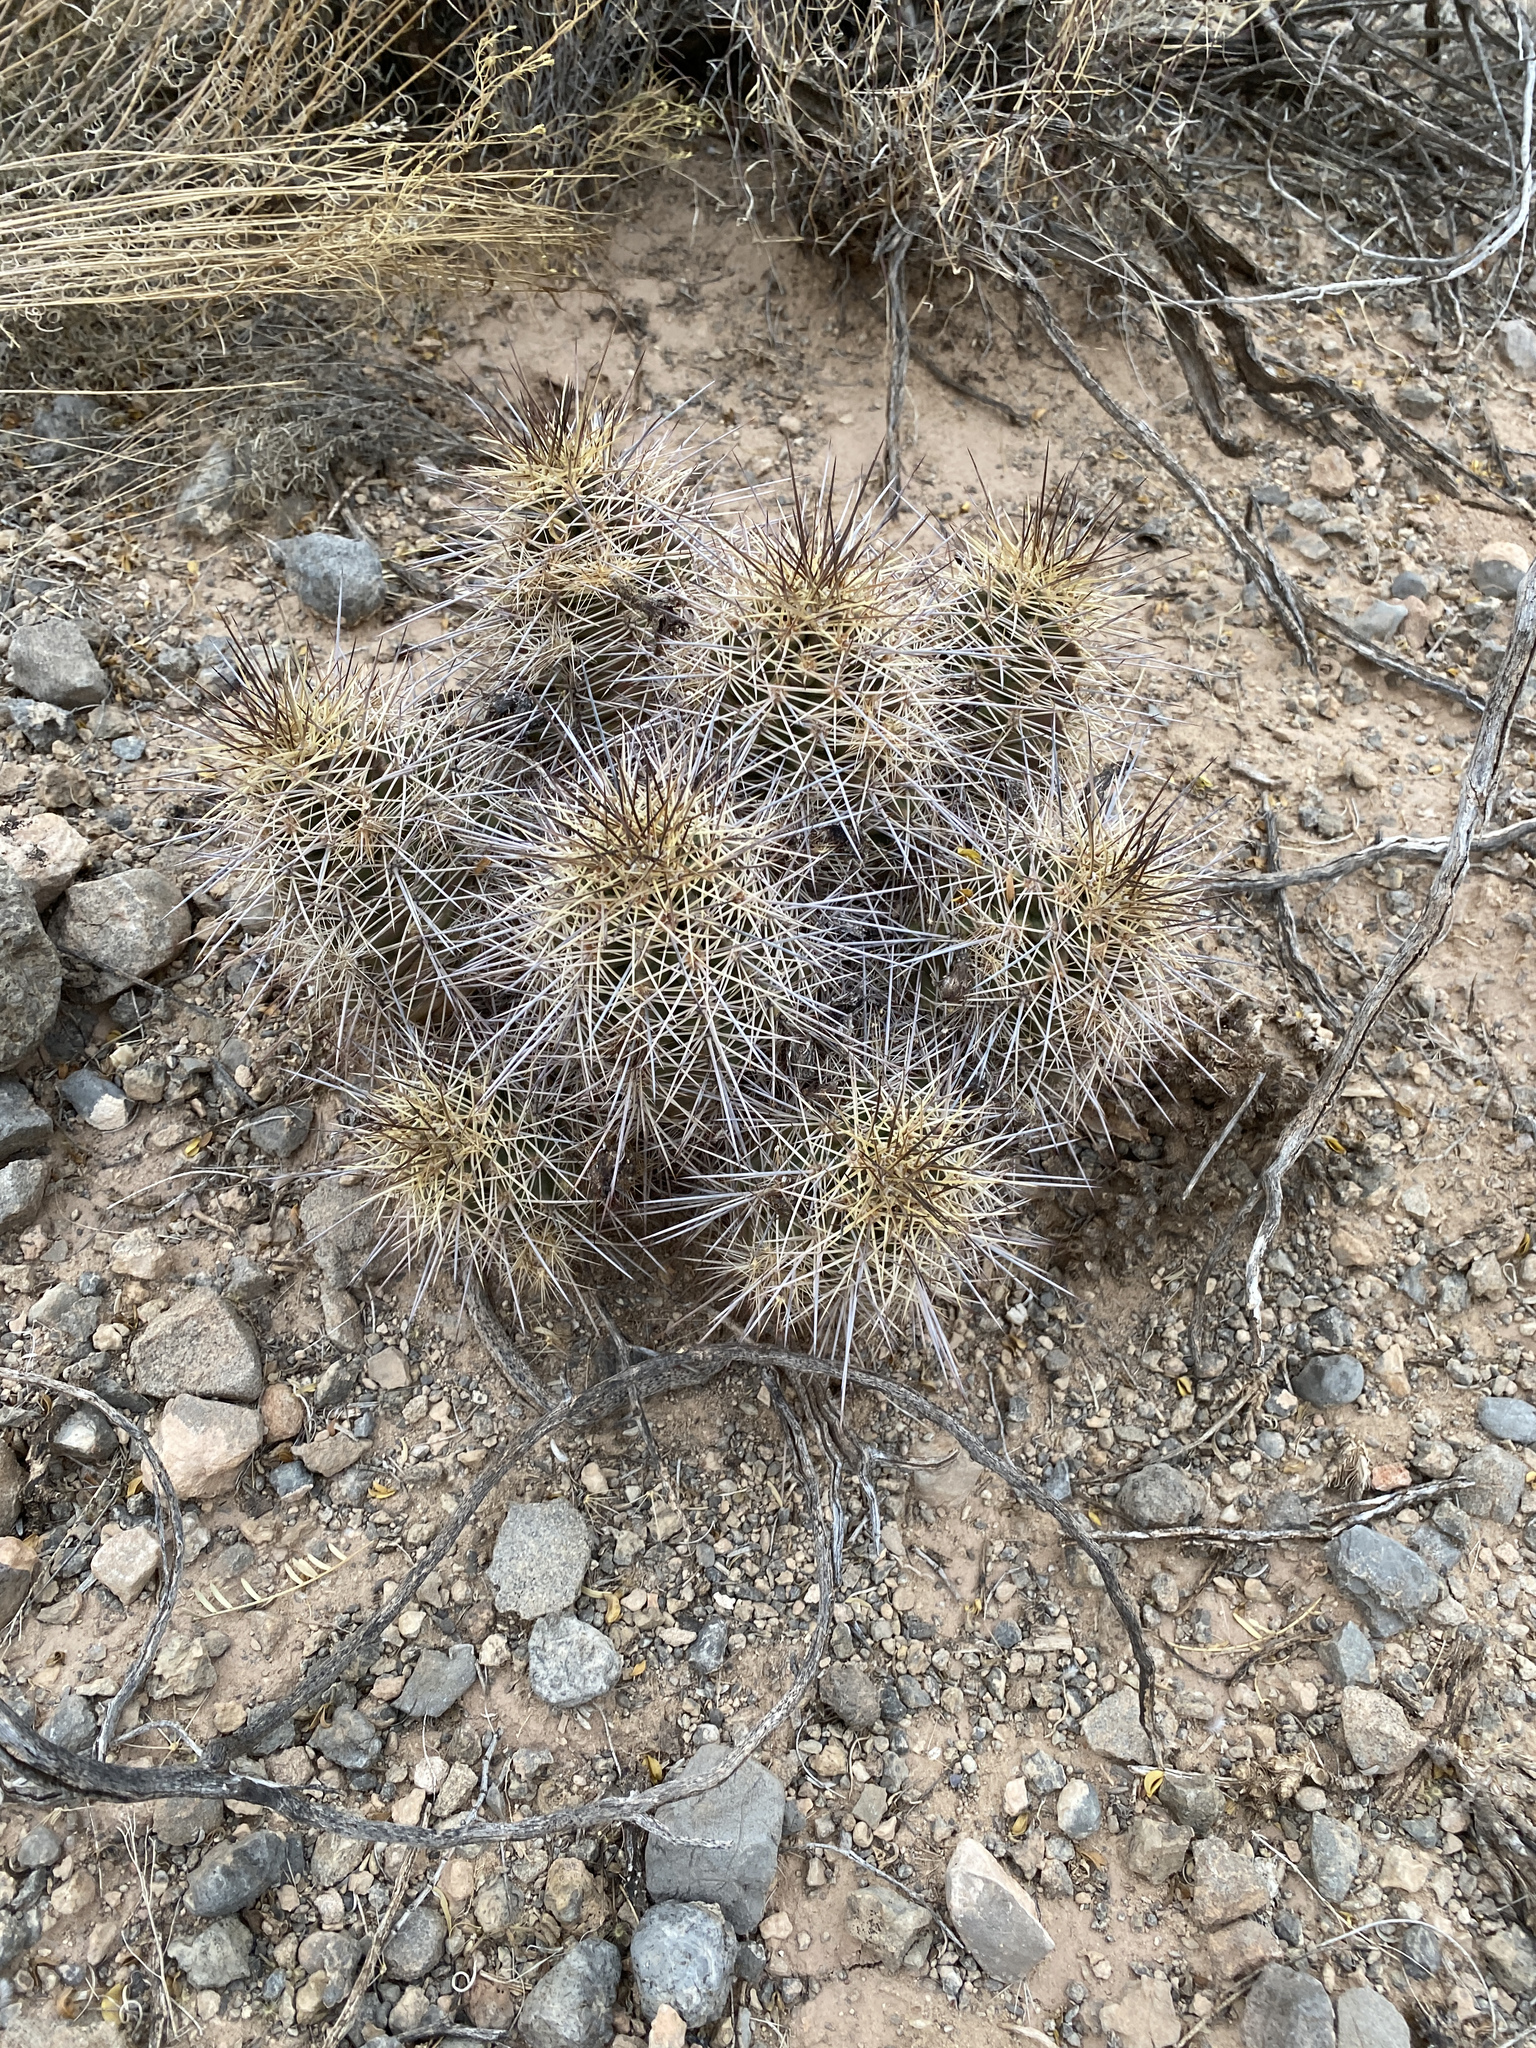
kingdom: Plantae
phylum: Tracheophyta
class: Magnoliopsida
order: Caryophyllales
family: Cactaceae
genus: Echinocereus
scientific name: Echinocereus coccineus
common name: Scarlet hedgehog cactus
